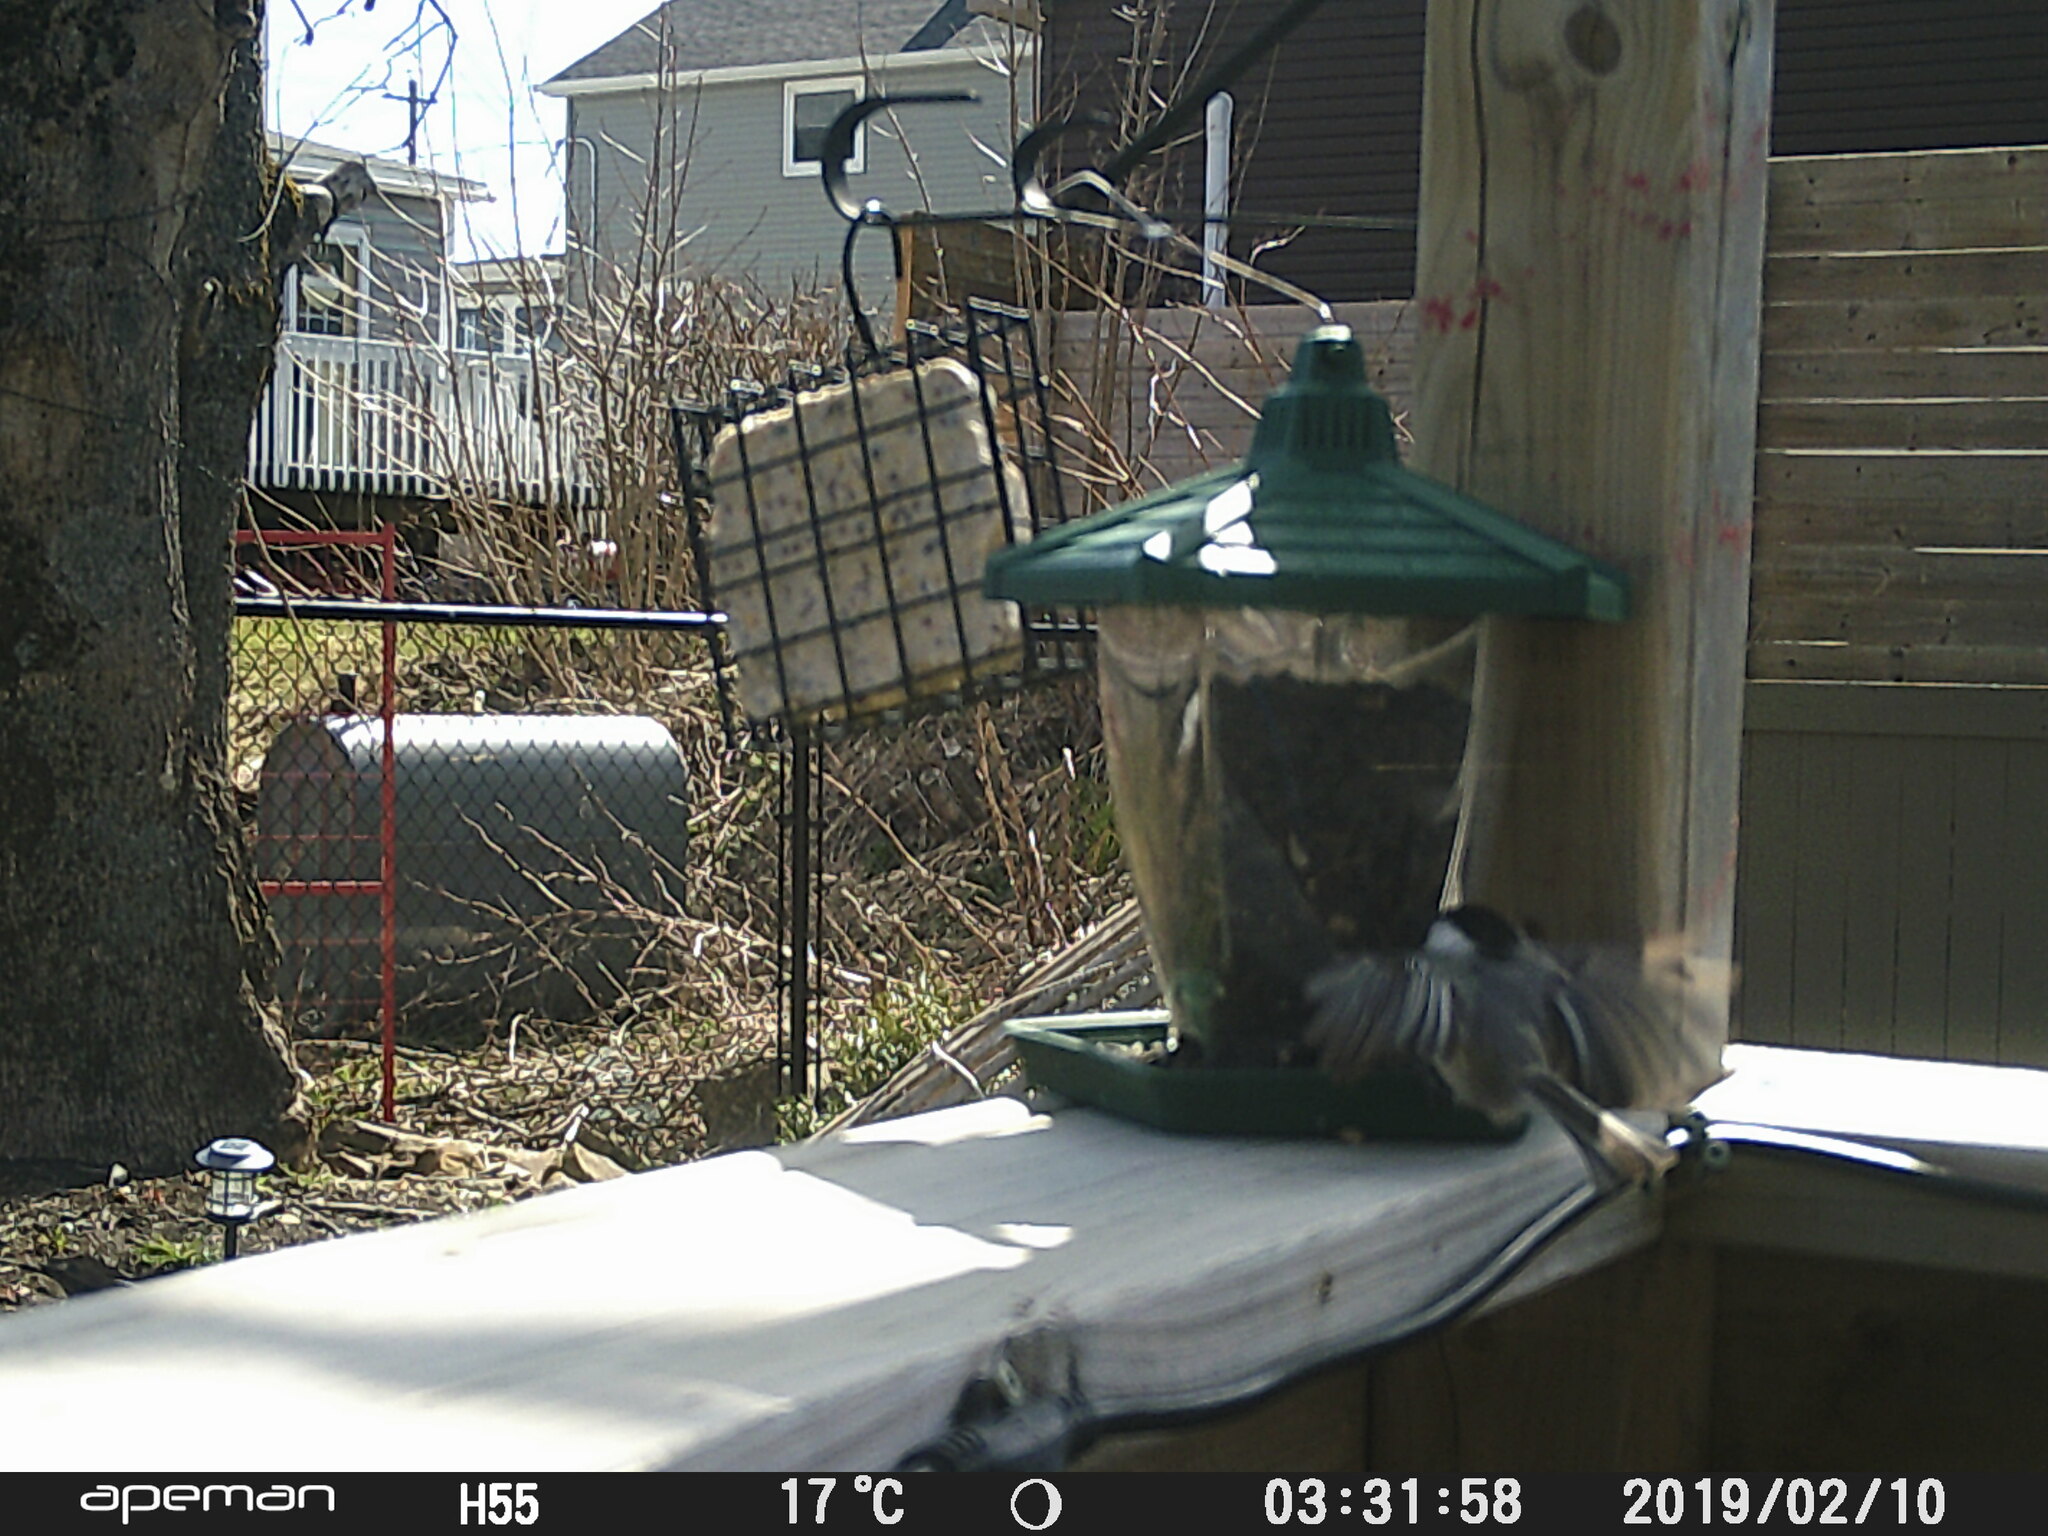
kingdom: Animalia
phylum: Chordata
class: Aves
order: Passeriformes
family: Paridae
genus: Poecile
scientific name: Poecile atricapillus
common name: Black-capped chickadee
